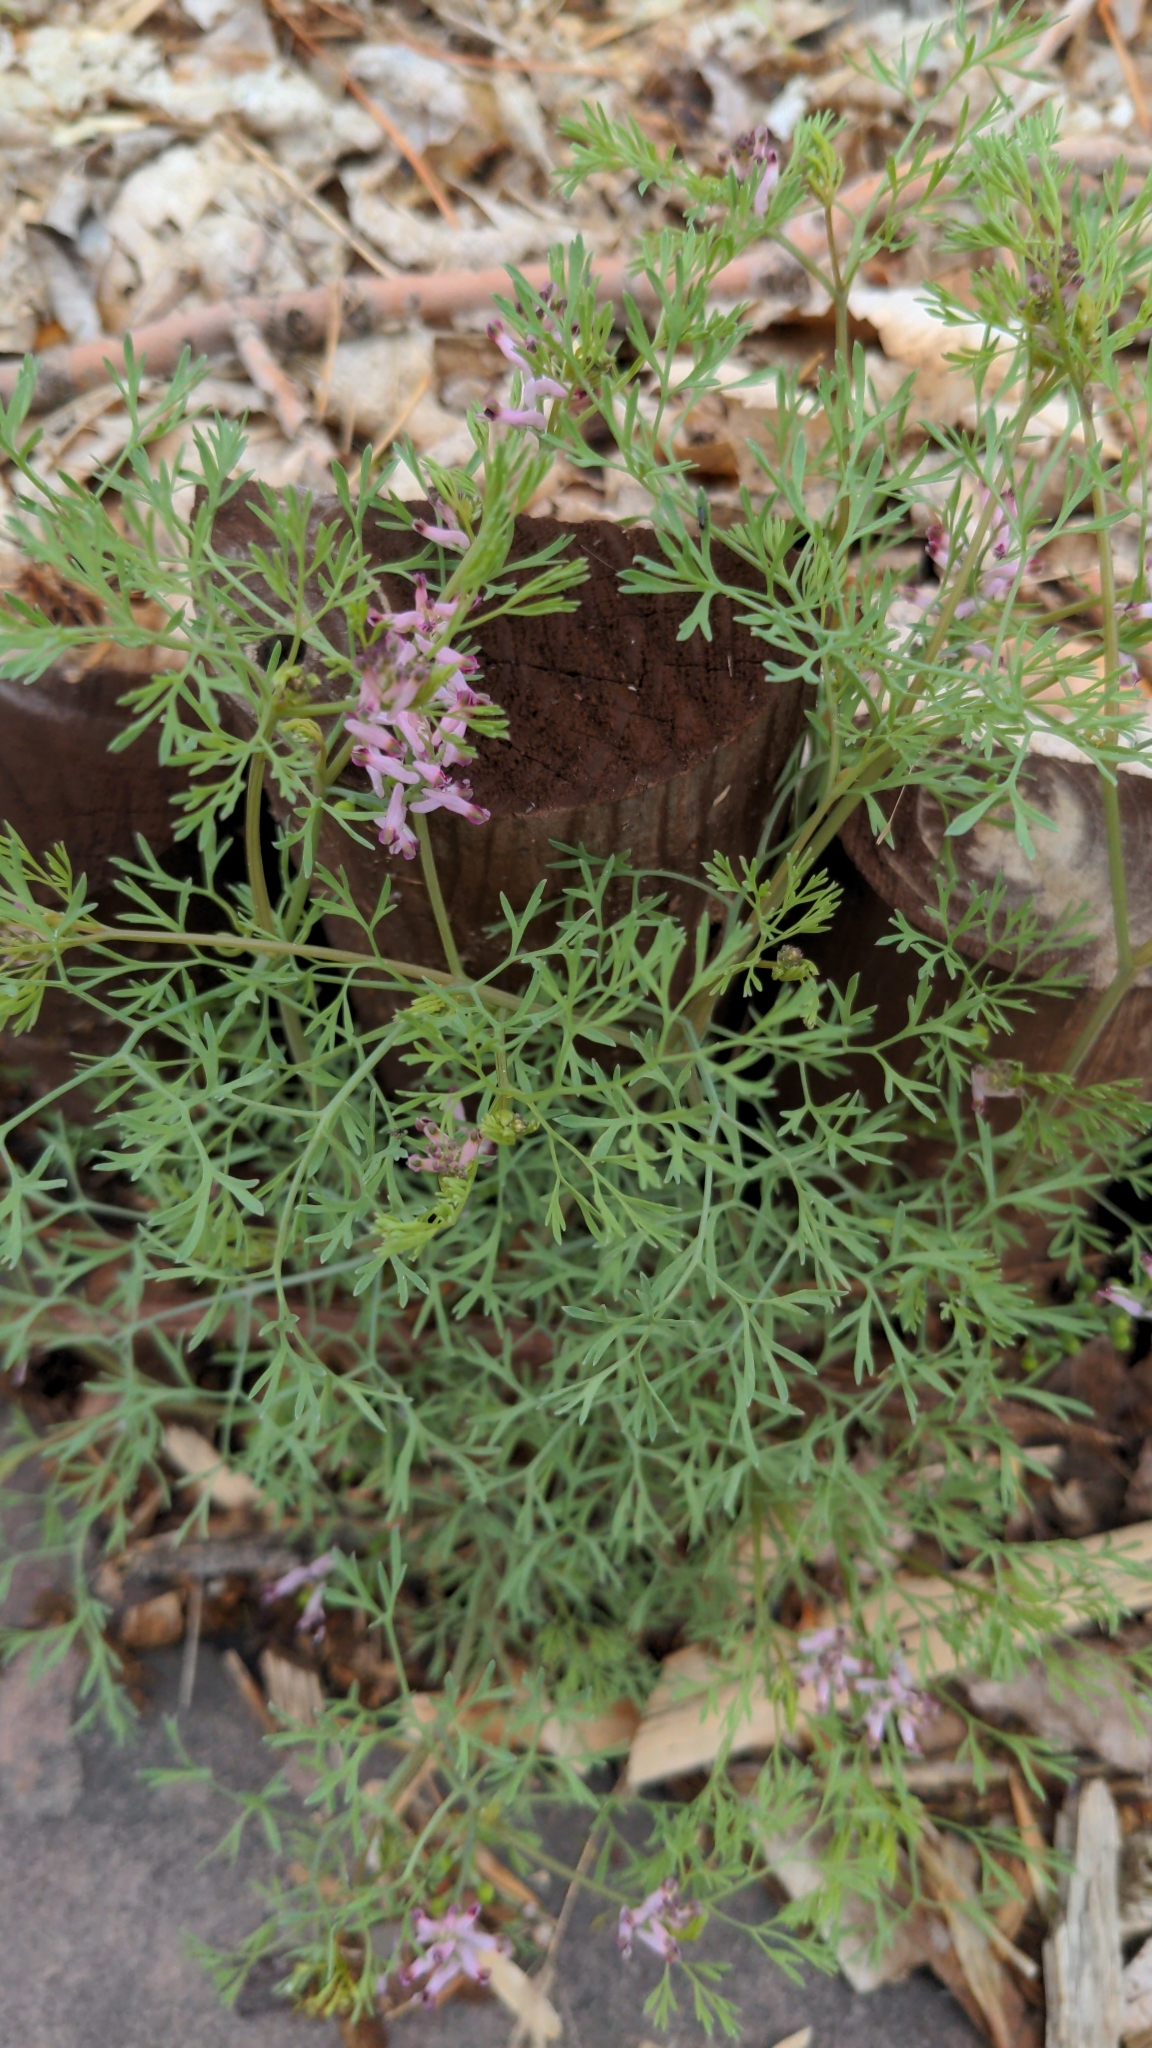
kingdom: Plantae
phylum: Tracheophyta
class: Magnoliopsida
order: Ranunculales
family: Papaveraceae
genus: Fumaria
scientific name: Fumaria vaillantii
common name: Few-flowered fumitory
